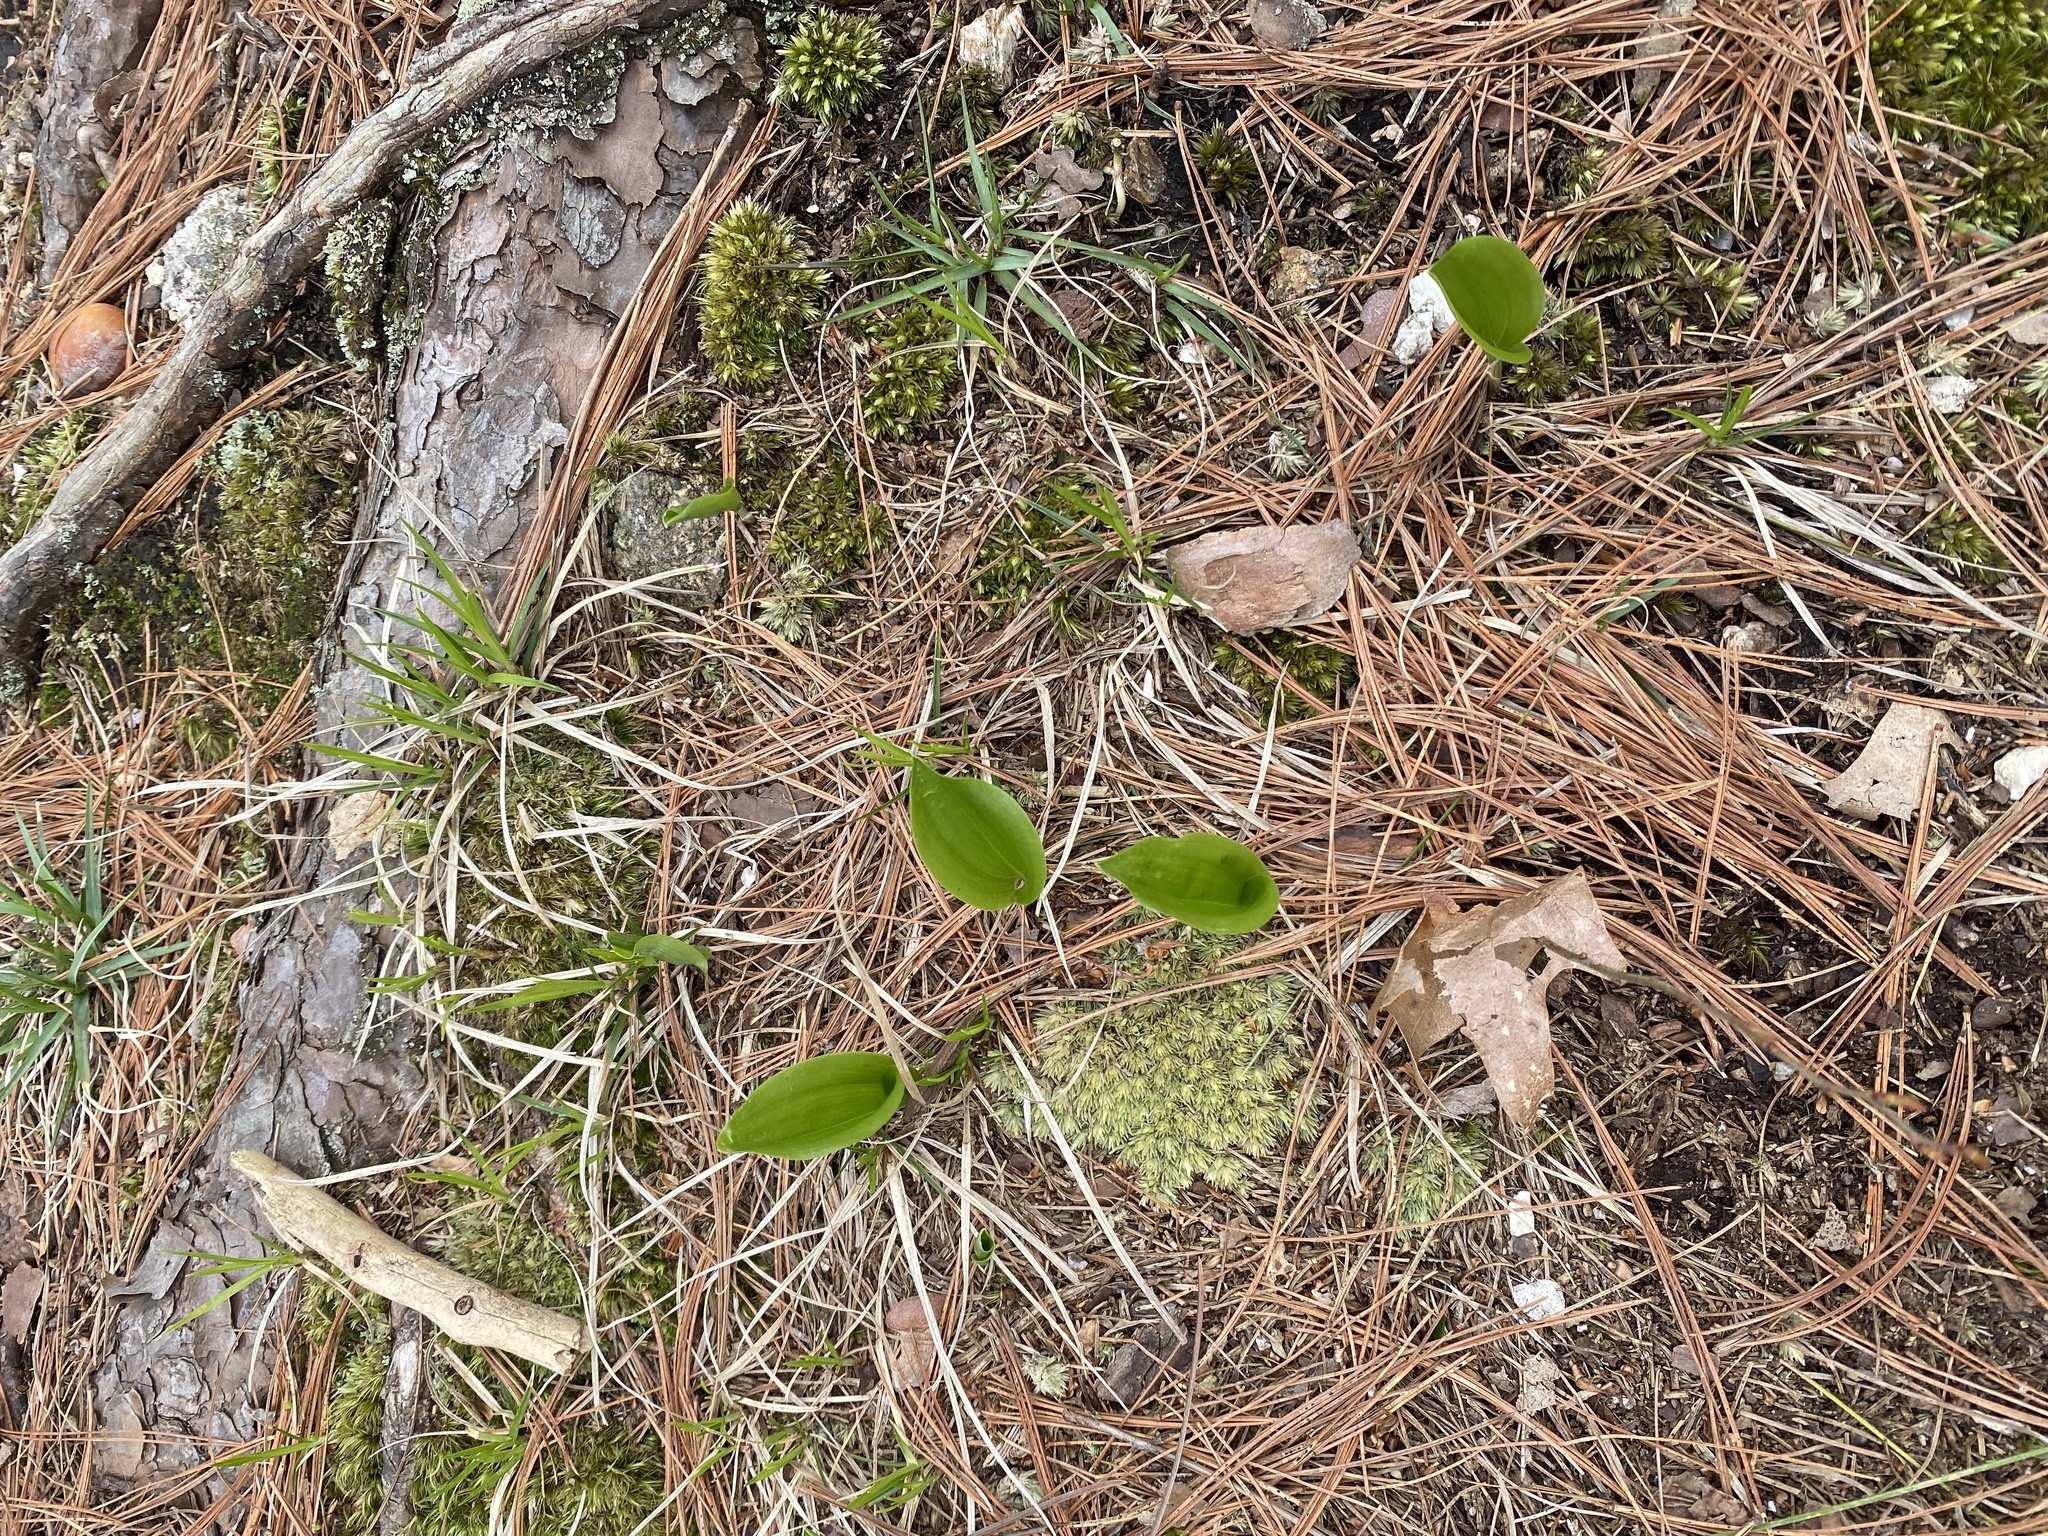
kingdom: Plantae
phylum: Tracheophyta
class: Liliopsida
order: Asparagales
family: Asparagaceae
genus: Maianthemum
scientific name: Maianthemum canadense
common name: False lily-of-the-valley
